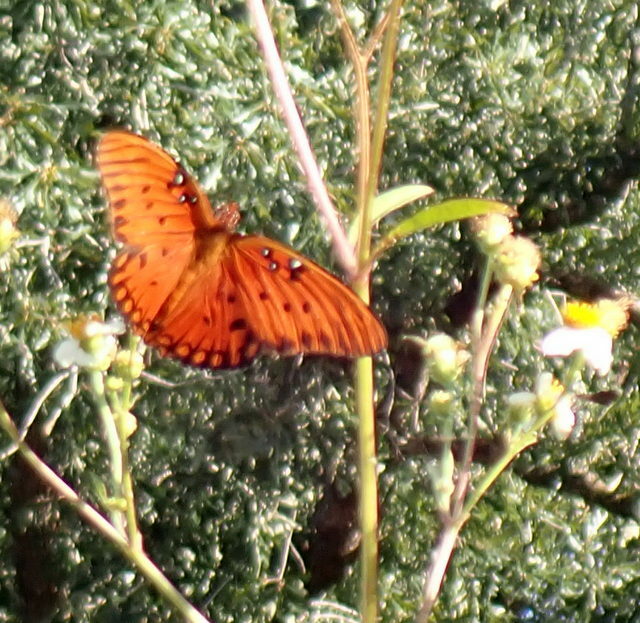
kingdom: Animalia
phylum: Arthropoda
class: Insecta
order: Lepidoptera
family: Nymphalidae
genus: Dione
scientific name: Dione vanillae
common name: Gulf fritillary
